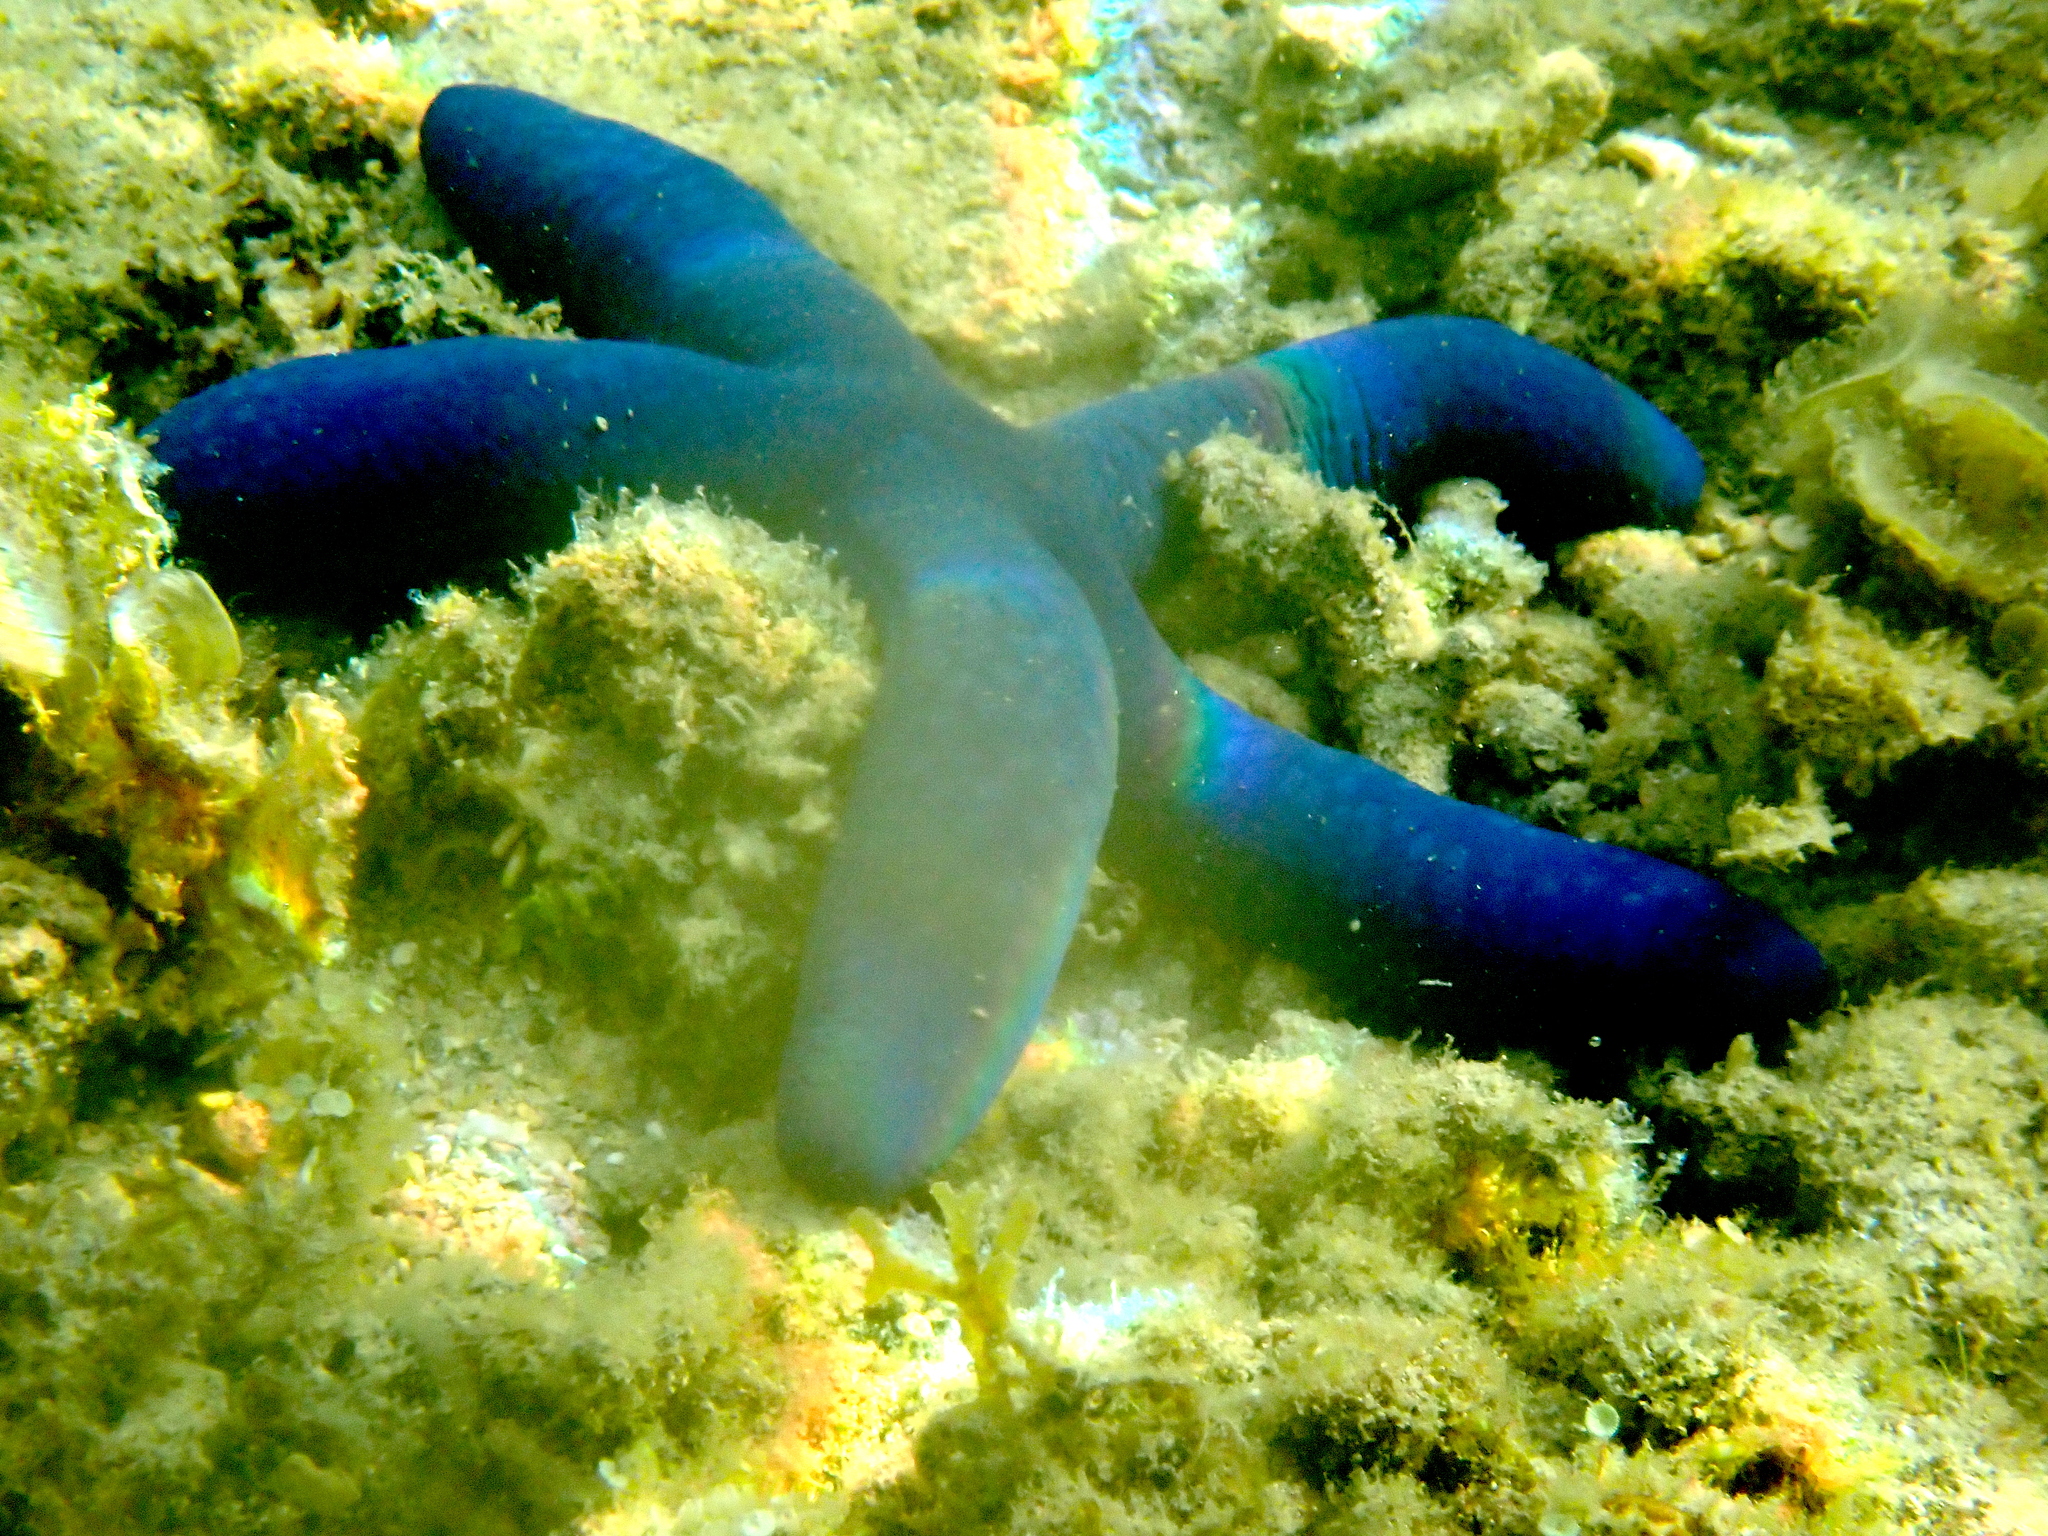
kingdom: Animalia
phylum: Echinodermata
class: Asteroidea
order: Valvatida
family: Ophidiasteridae
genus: Linckia
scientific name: Linckia laevigata
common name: Azure sea star
